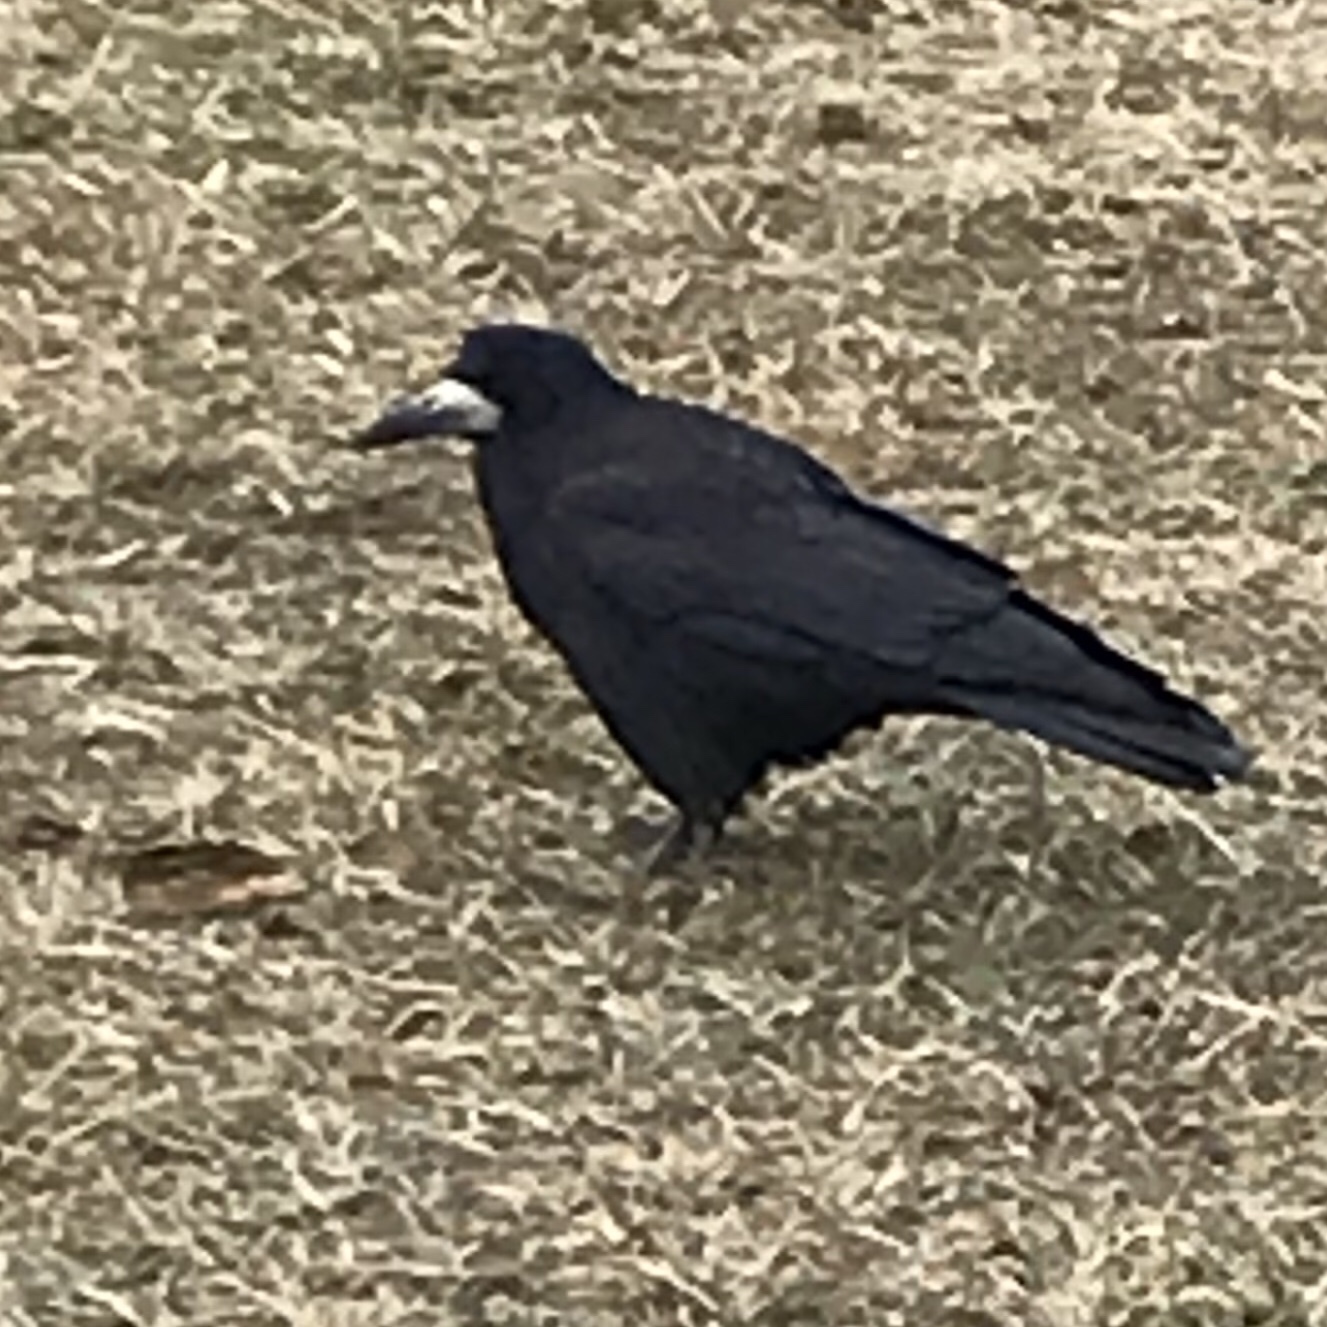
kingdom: Animalia
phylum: Chordata
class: Aves
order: Passeriformes
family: Corvidae
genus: Corvus
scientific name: Corvus frugilegus
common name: Rook
